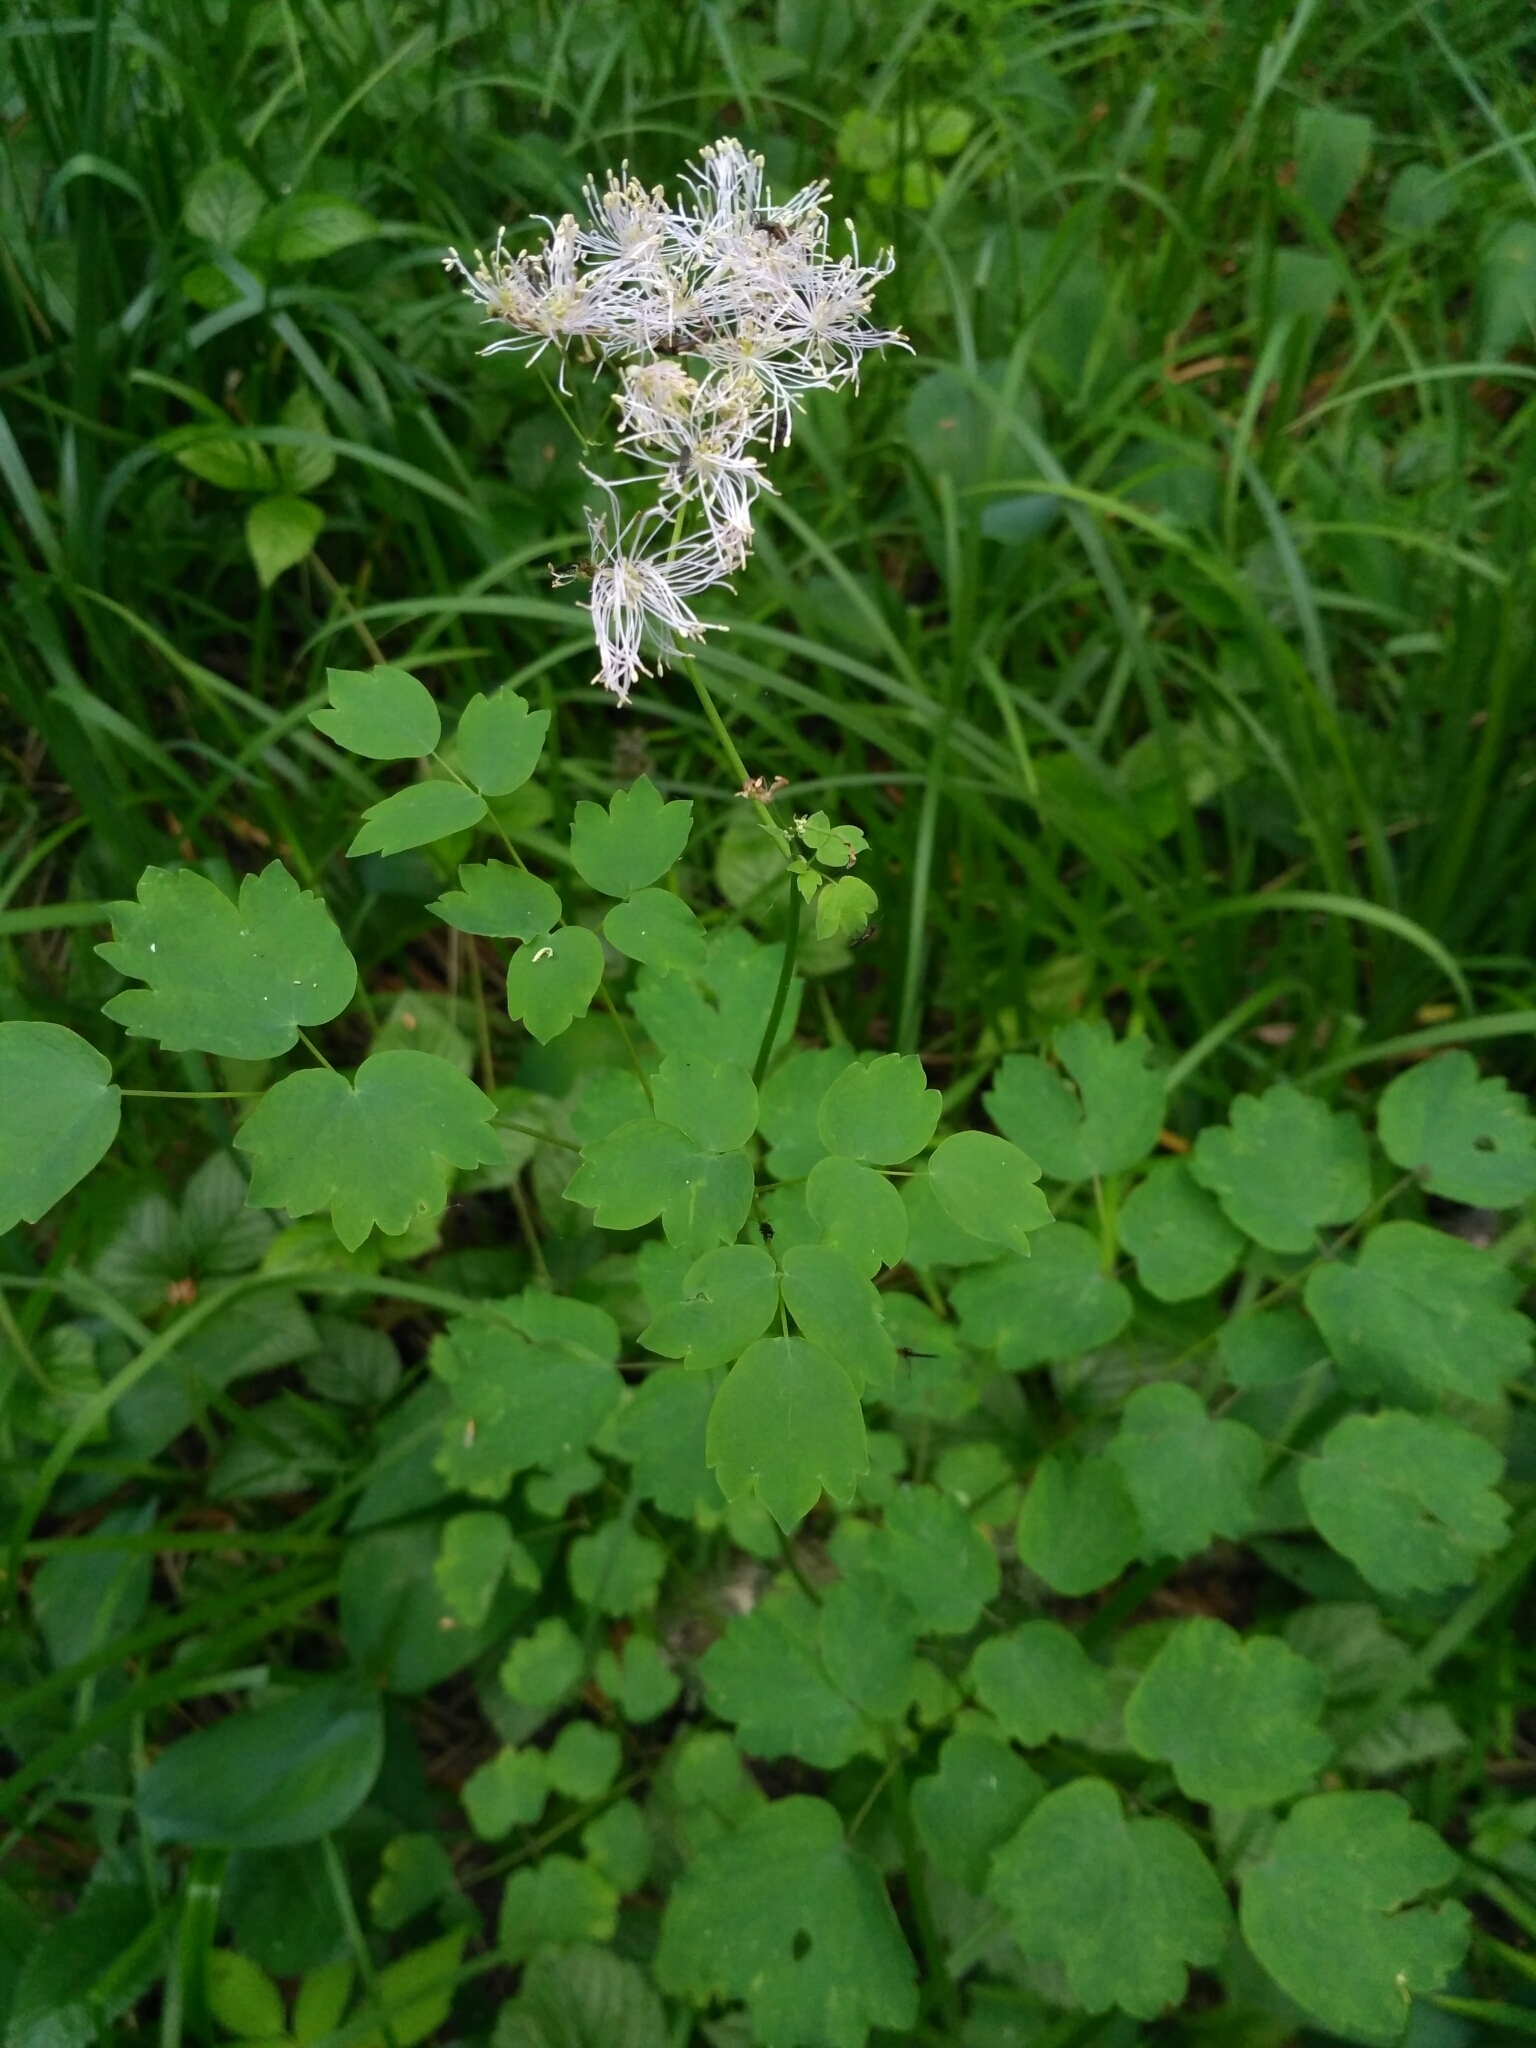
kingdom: Plantae
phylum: Tracheophyta
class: Magnoliopsida
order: Ranunculales
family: Ranunculaceae
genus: Thalictrum
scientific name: Thalictrum aquilegiifolium
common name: French meadow-rue
